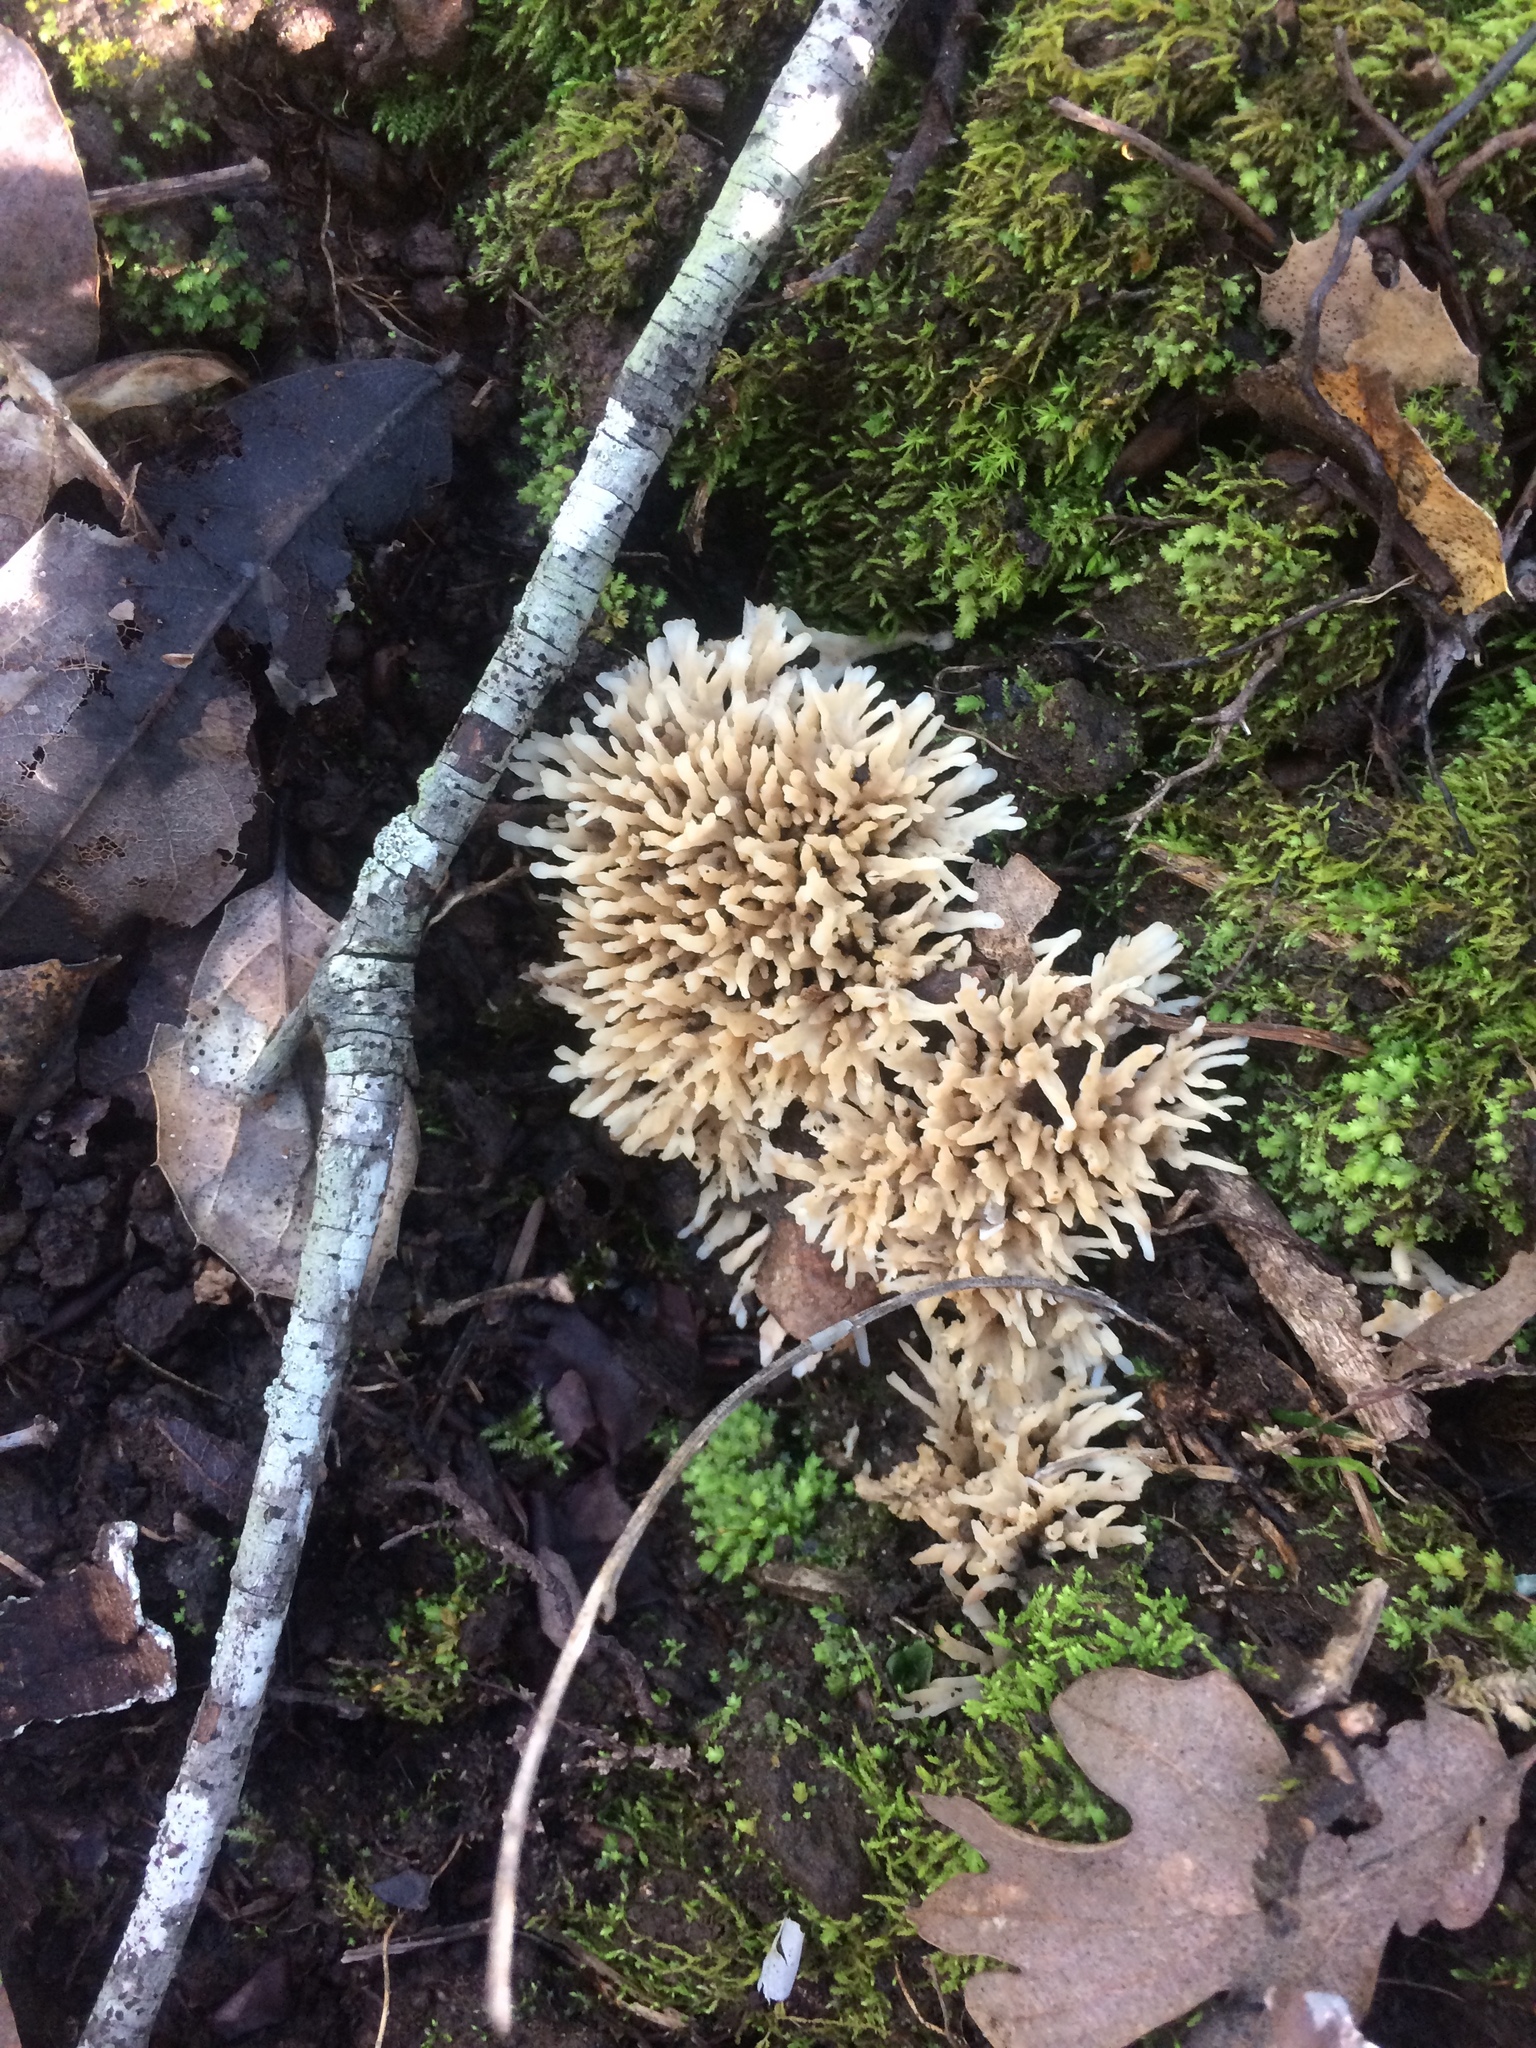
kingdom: Fungi
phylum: Basidiomycota
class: Agaricomycetes
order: Tremellodendropsidales
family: Tremellodendropsidaceae
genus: Tremellodendropsis
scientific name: Tremellodendropsis tuberosa
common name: Ashen coral
